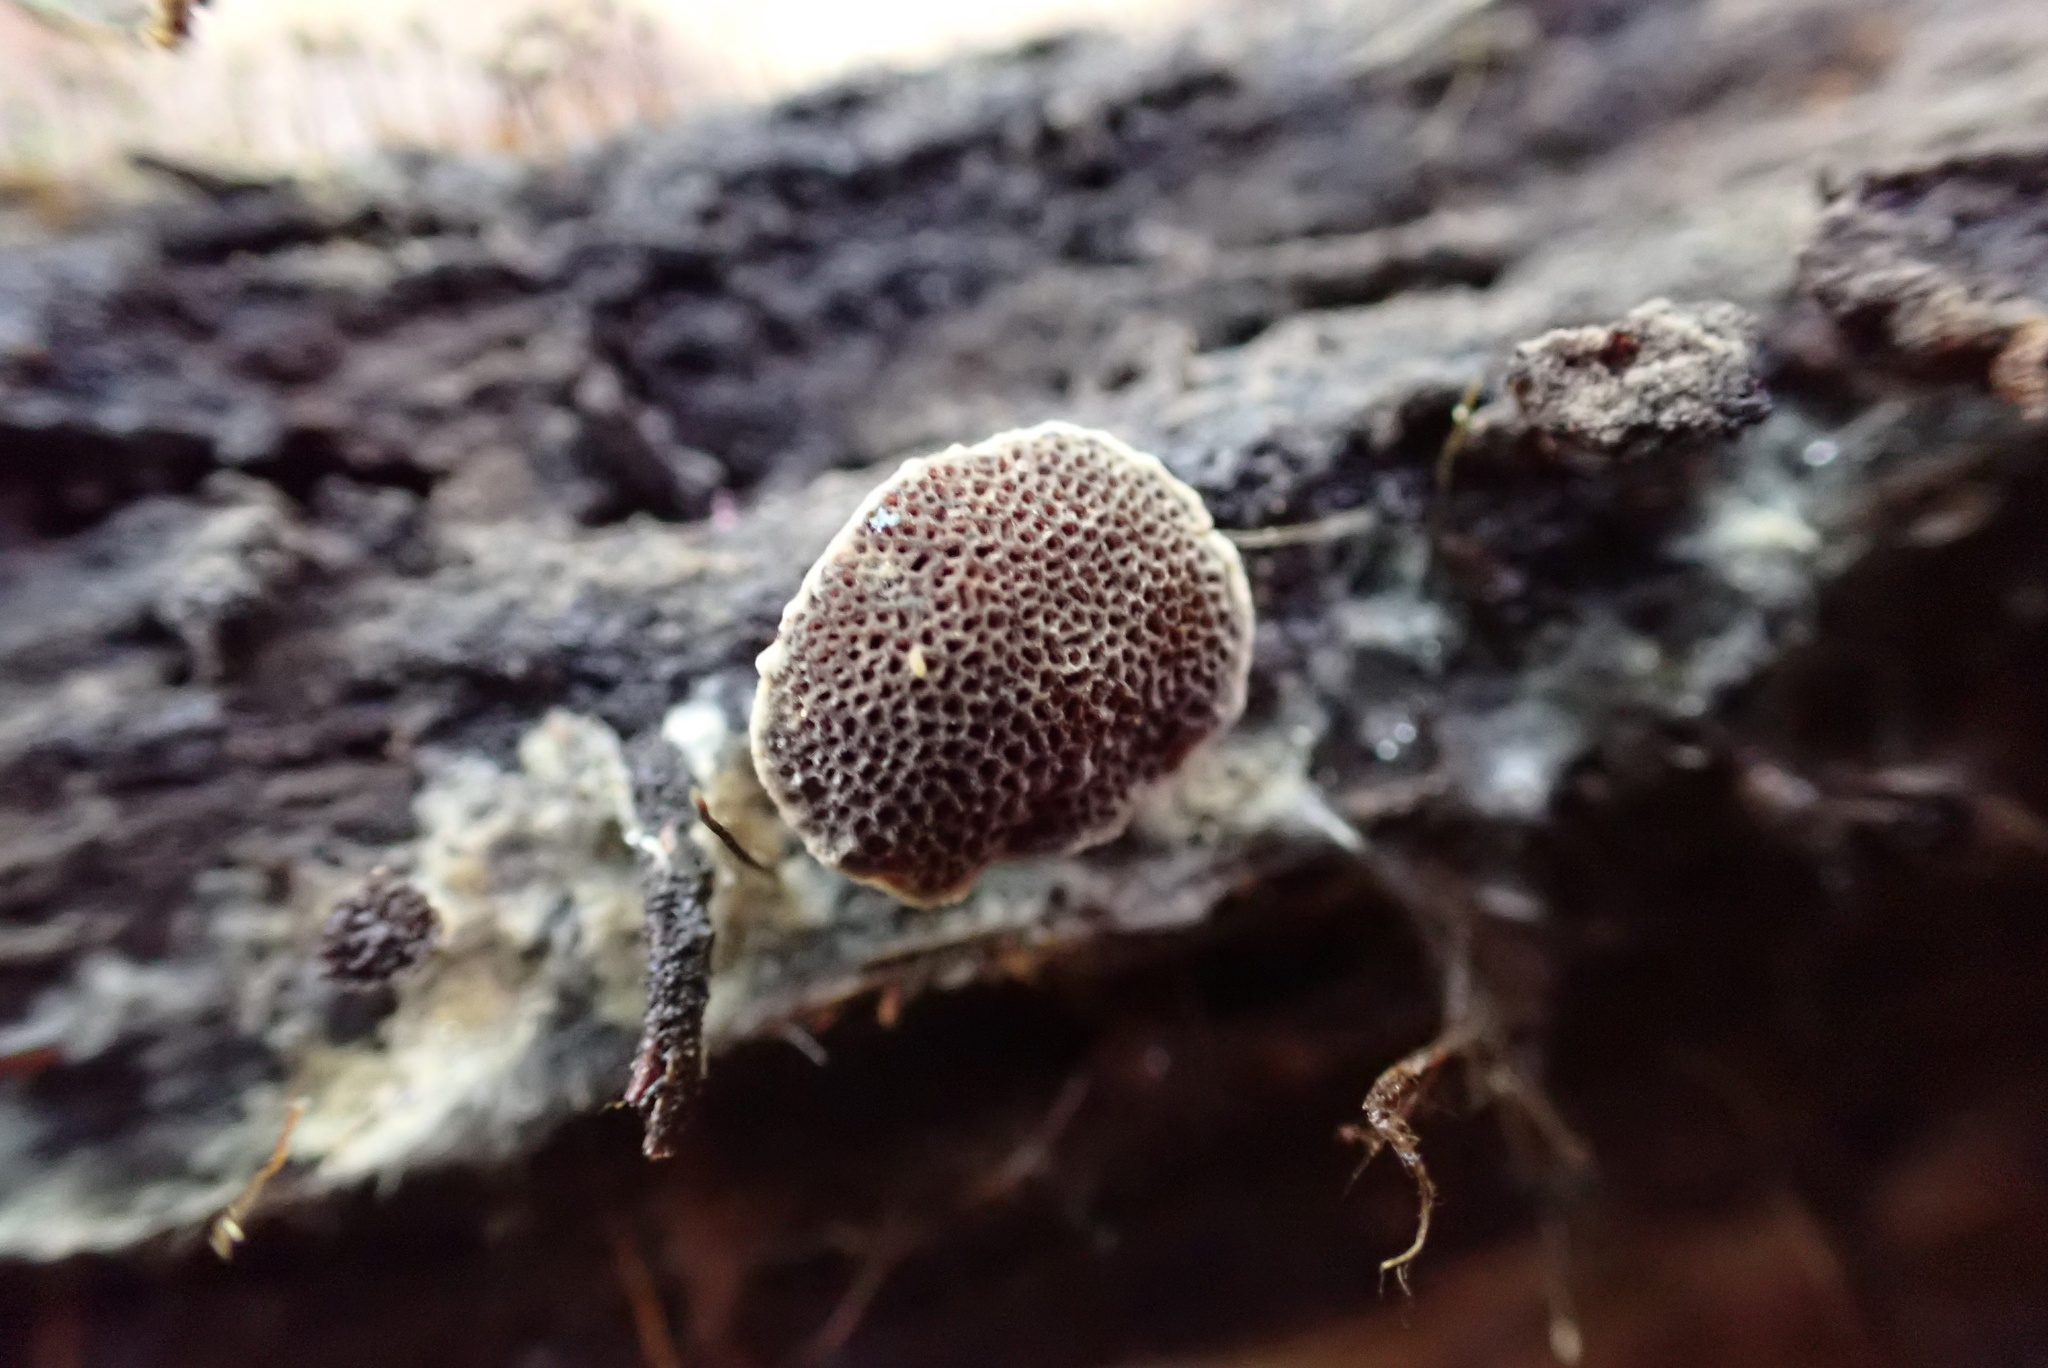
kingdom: Fungi
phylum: Basidiomycota
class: Agaricomycetes
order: Hymenochaetales
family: Hymenochaetaceae
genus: Coltriciella
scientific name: Coltriciella dependens
